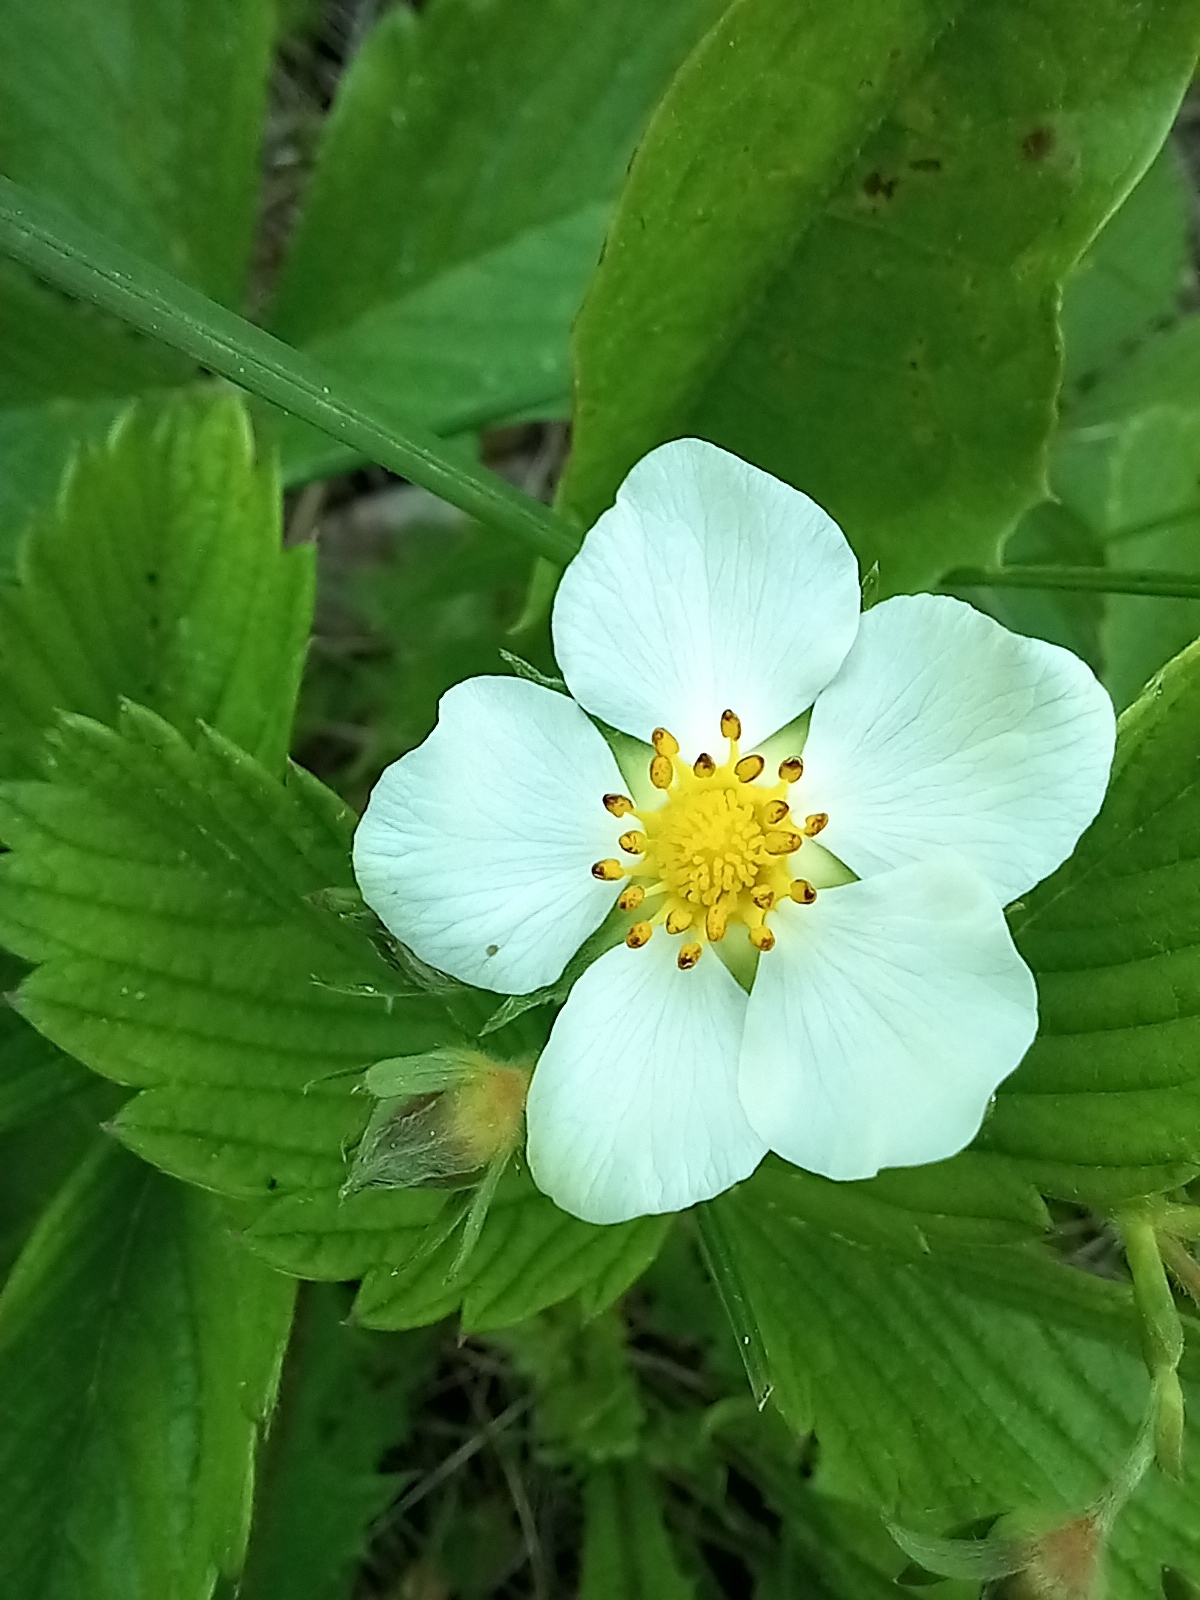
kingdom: Plantae
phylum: Tracheophyta
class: Magnoliopsida
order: Rosales
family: Rosaceae
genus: Fragaria
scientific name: Fragaria viridis
